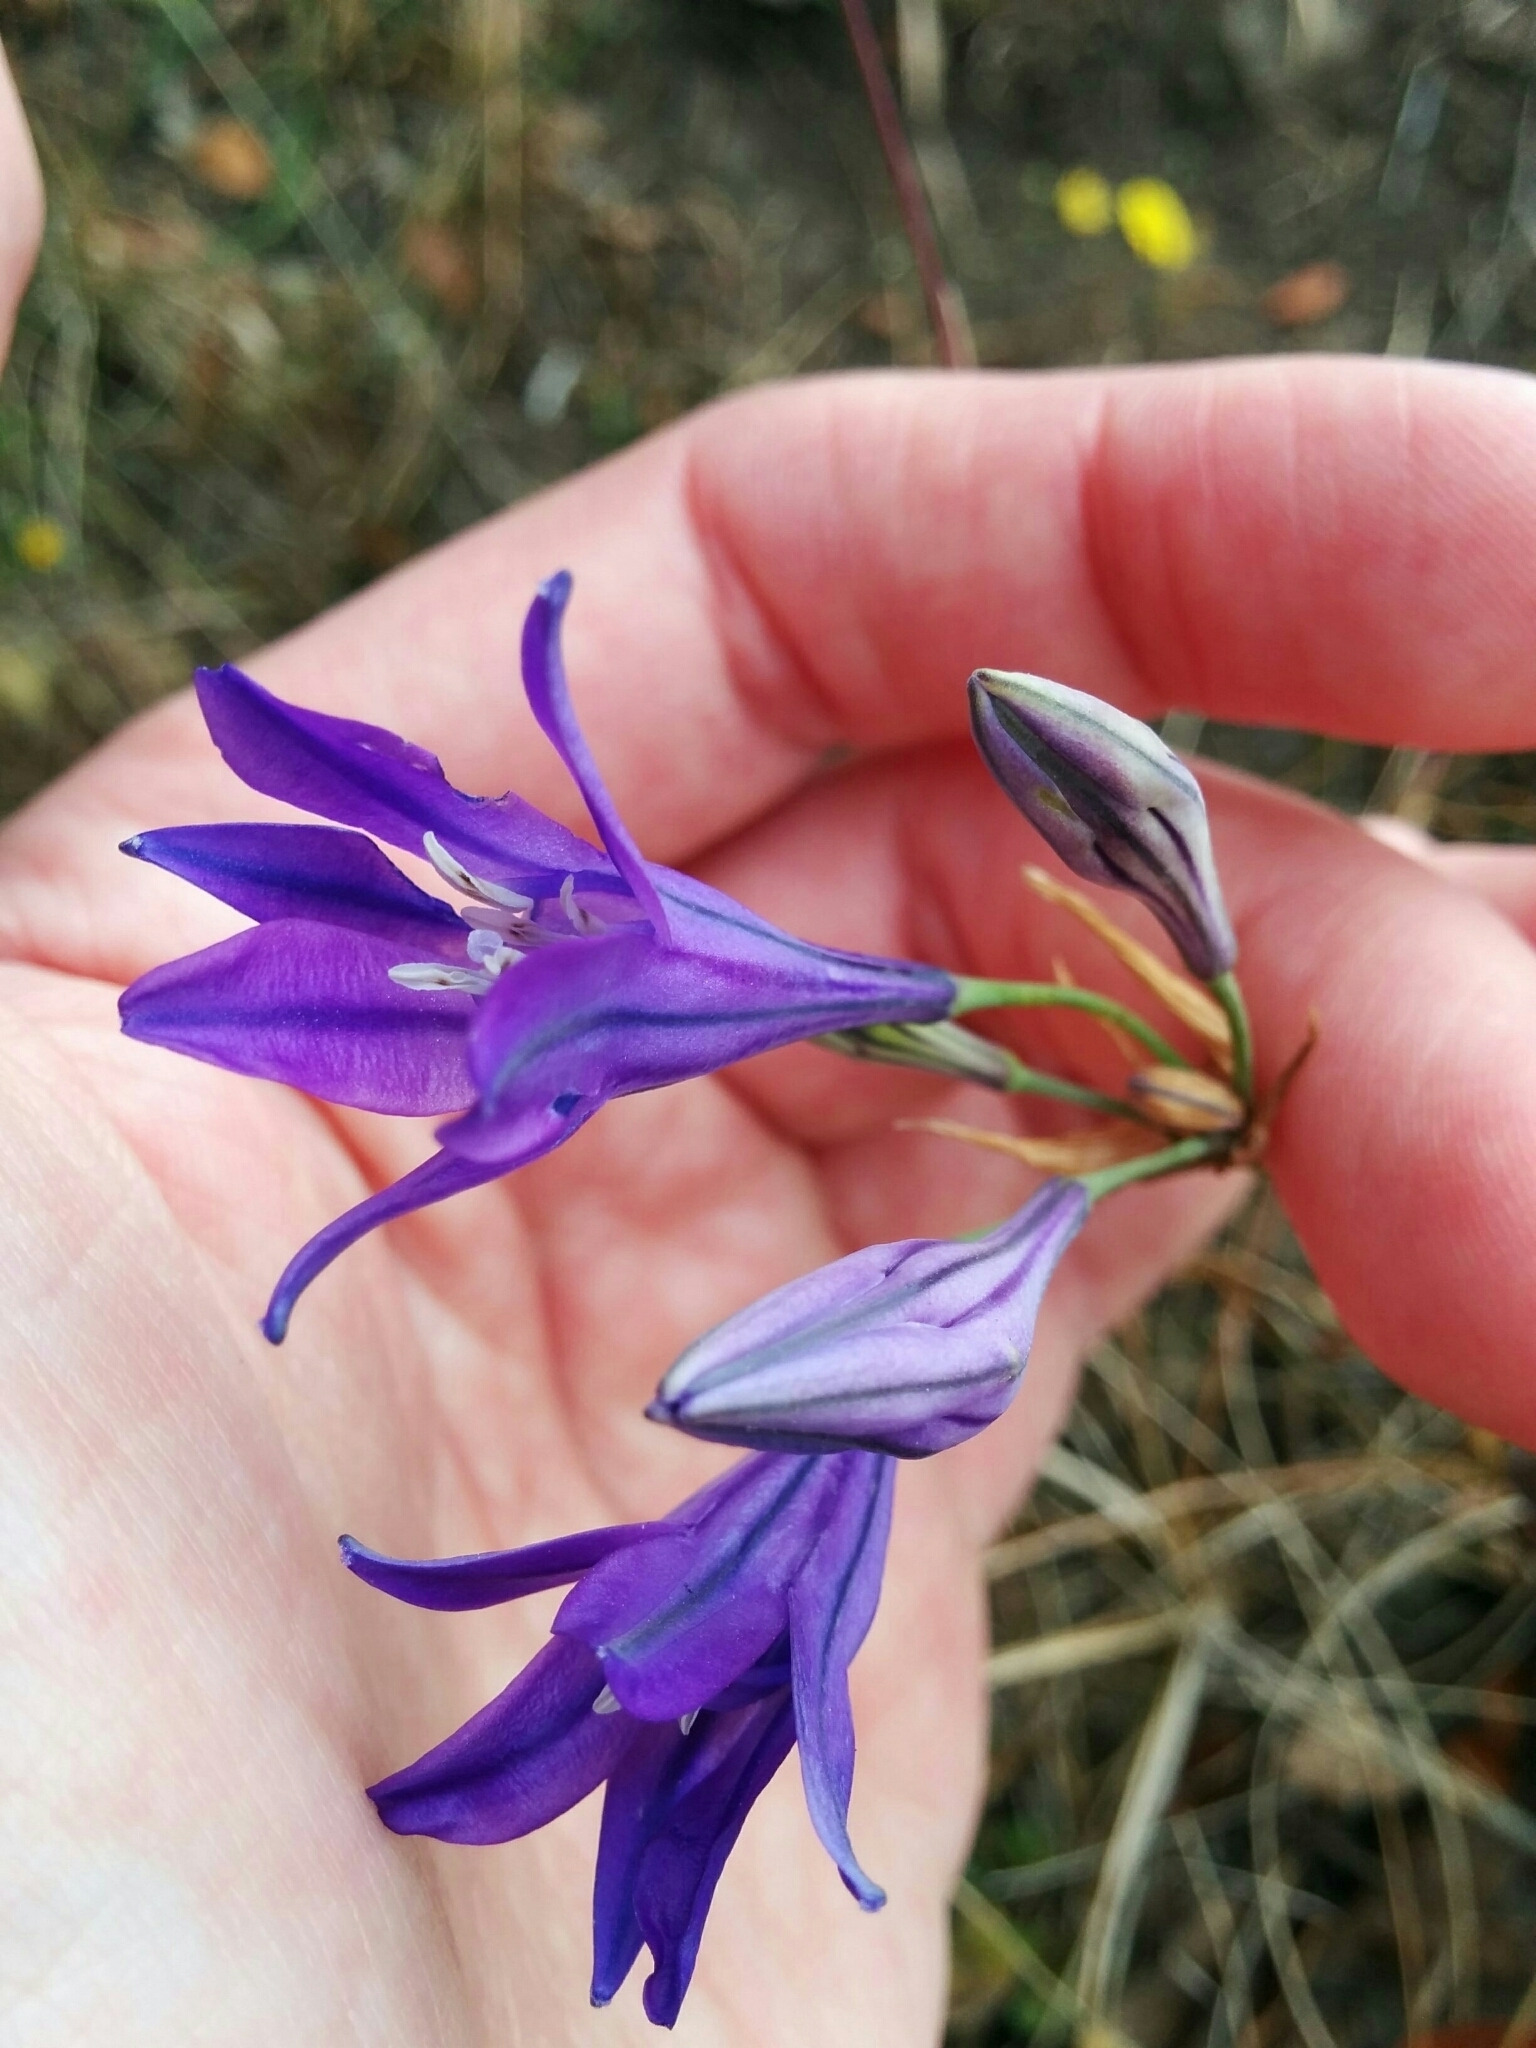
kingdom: Plantae
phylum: Tracheophyta
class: Liliopsida
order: Asparagales
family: Asparagaceae
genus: Triteleia
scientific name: Triteleia laxa
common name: Triplet-lily
